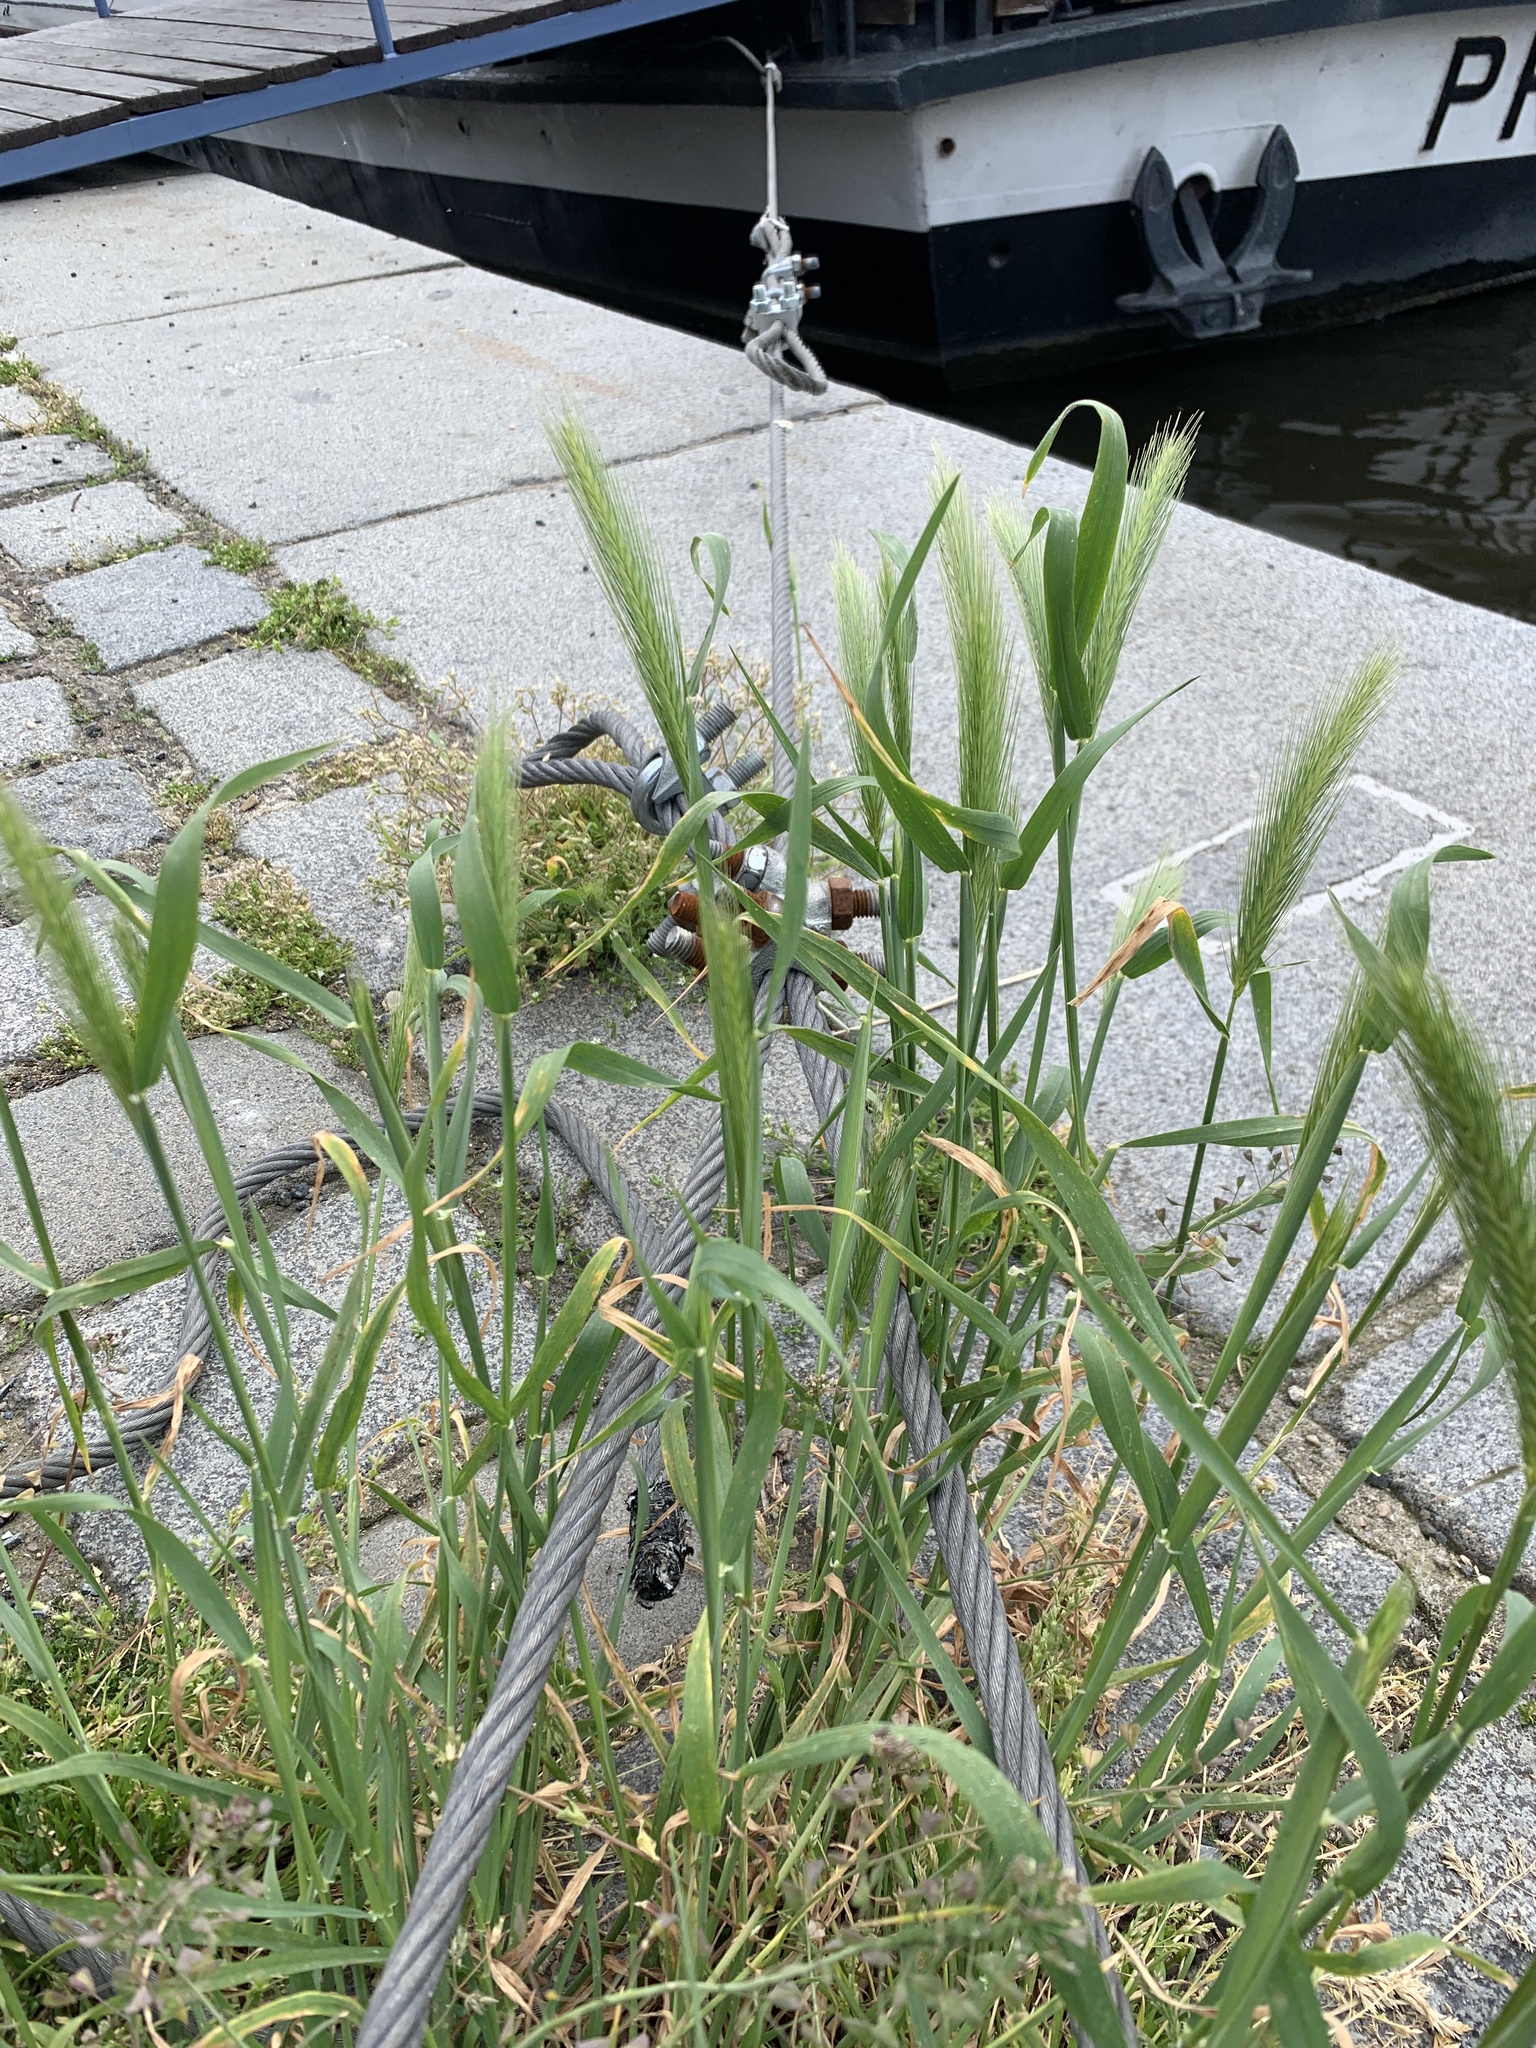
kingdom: Plantae
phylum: Tracheophyta
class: Liliopsida
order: Poales
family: Poaceae
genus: Hordeum
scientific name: Hordeum murinum
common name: Wall barley
